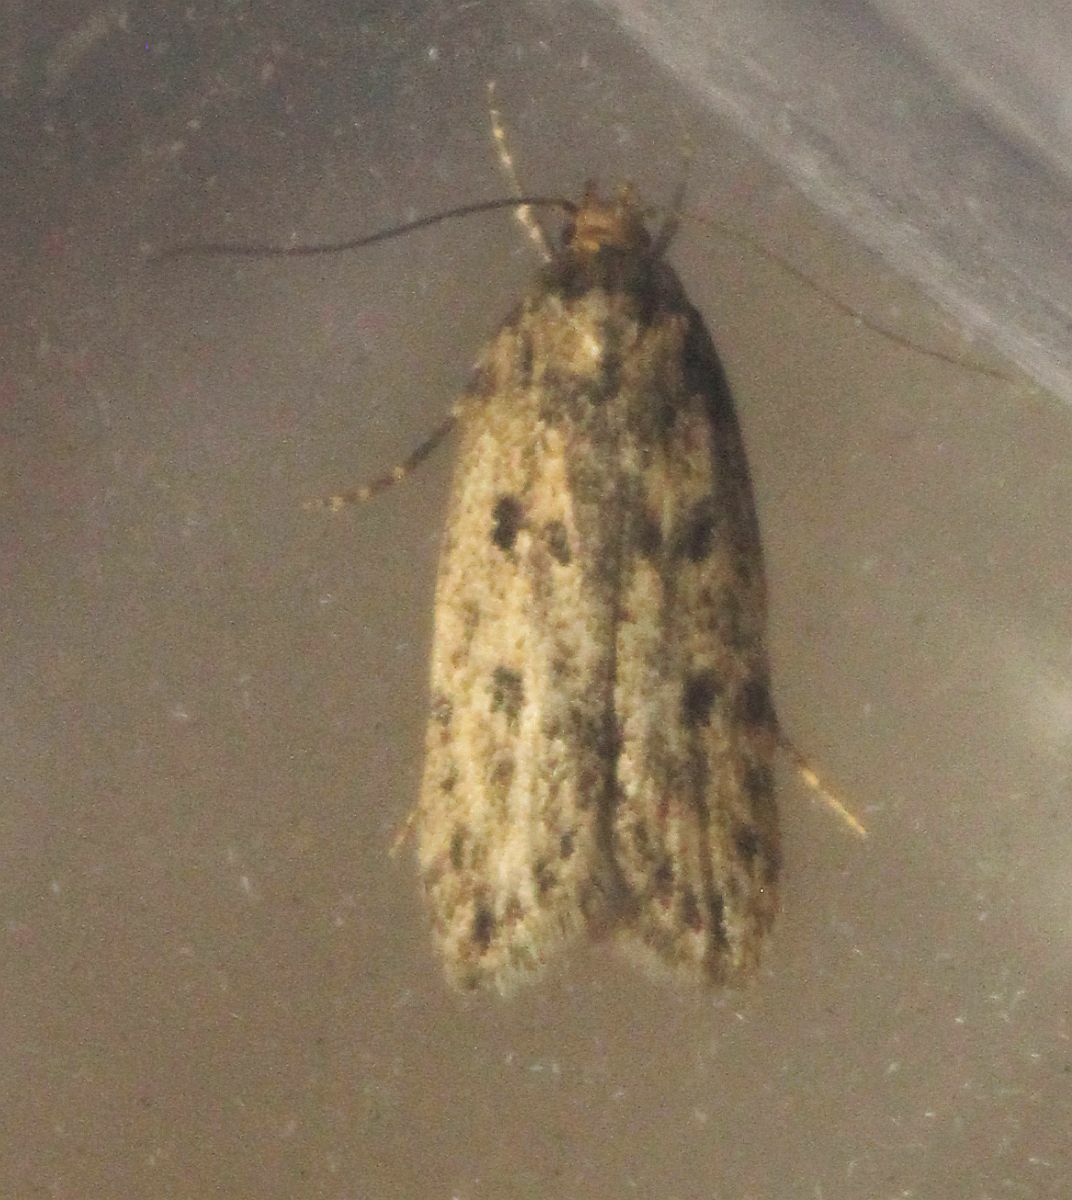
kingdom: Animalia
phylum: Arthropoda
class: Insecta
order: Lepidoptera
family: Oecophoridae
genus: Hofmannophila
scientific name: Hofmannophila pseudospretella
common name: Brown house moth
